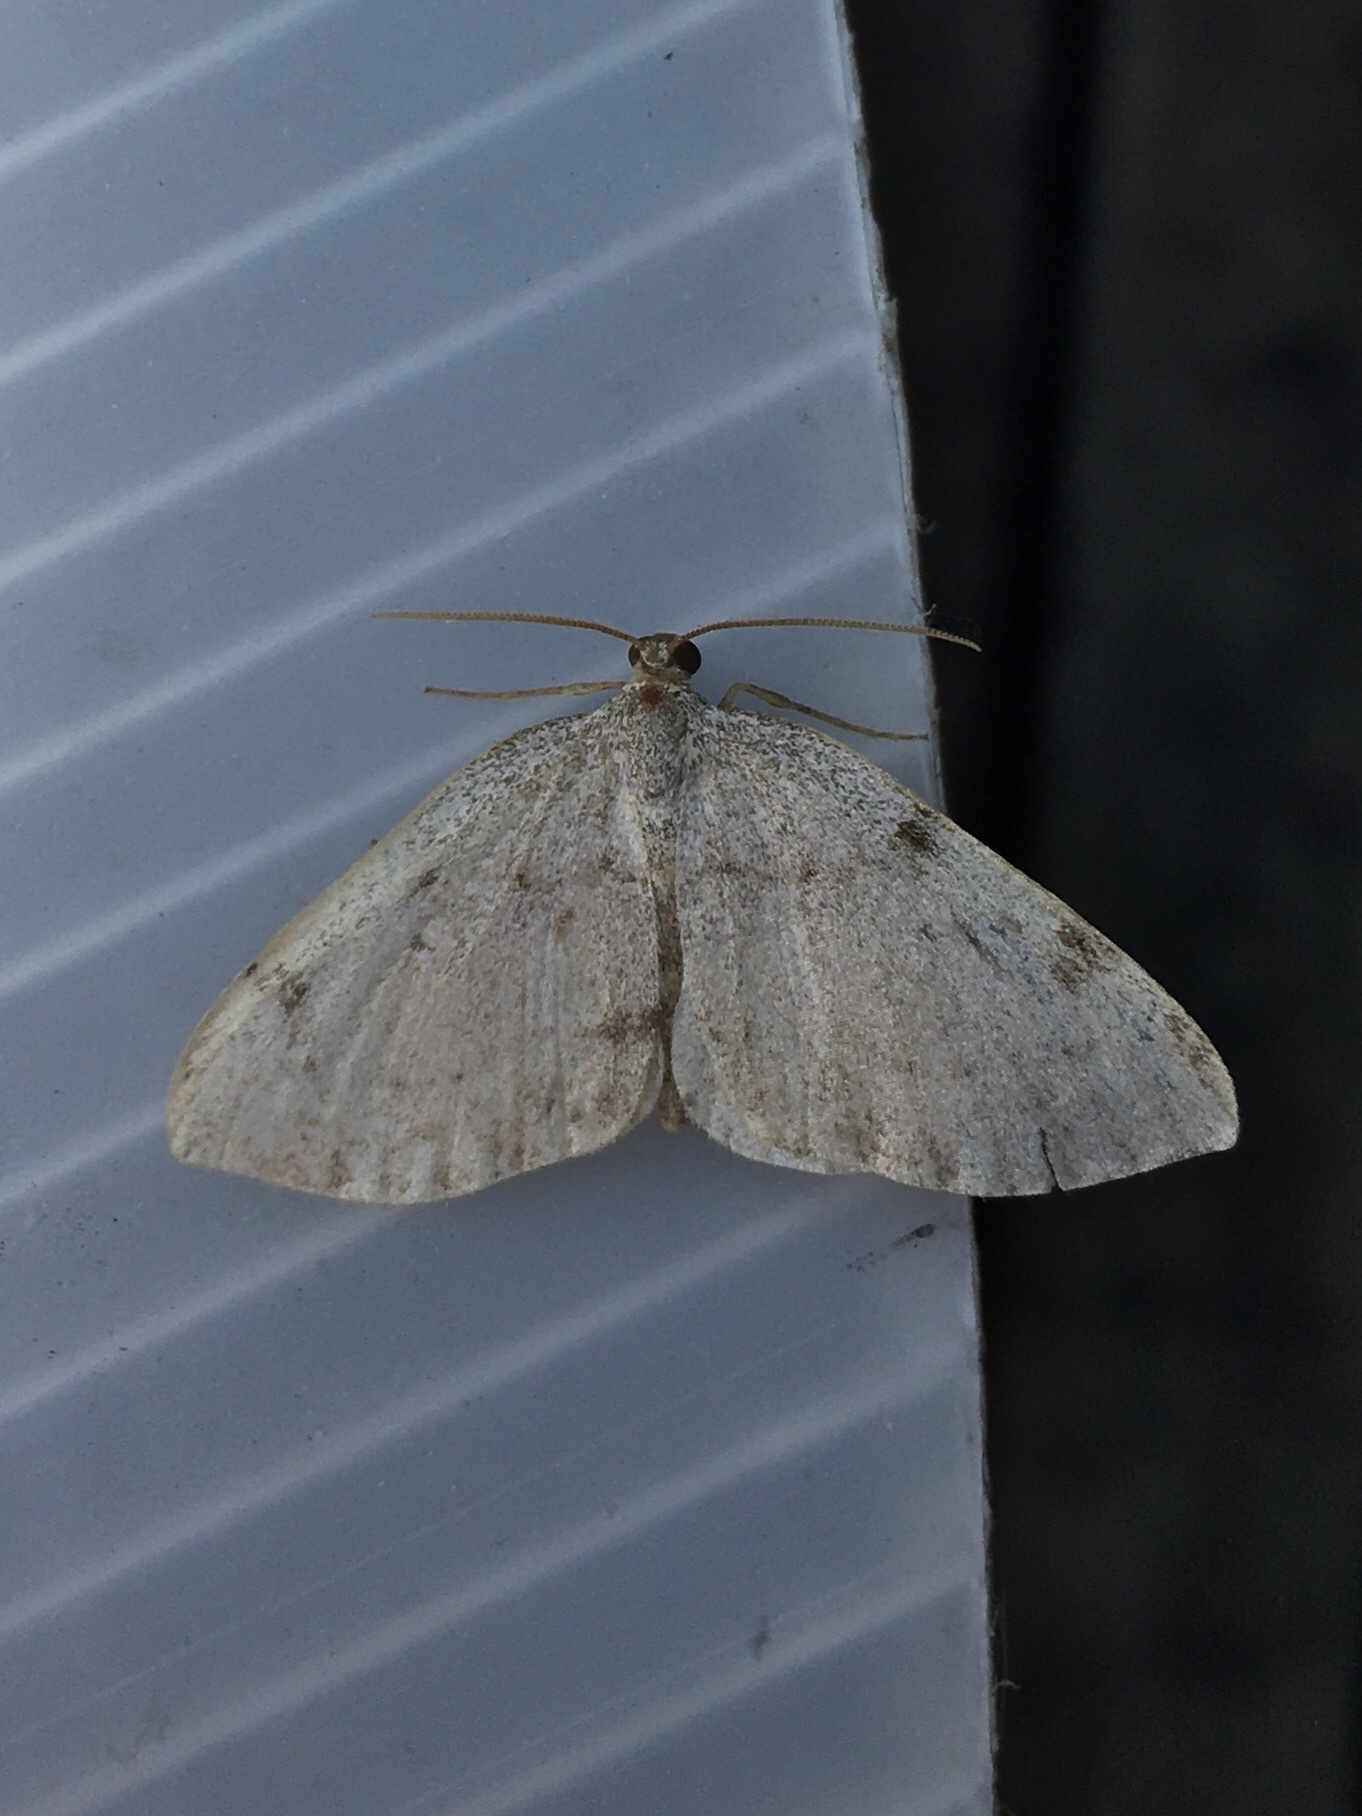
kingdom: Animalia
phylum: Arthropoda
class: Insecta
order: Lepidoptera
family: Geometridae
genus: Heterophleps
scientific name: Heterophleps refusaria
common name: Three-patched bigwing
